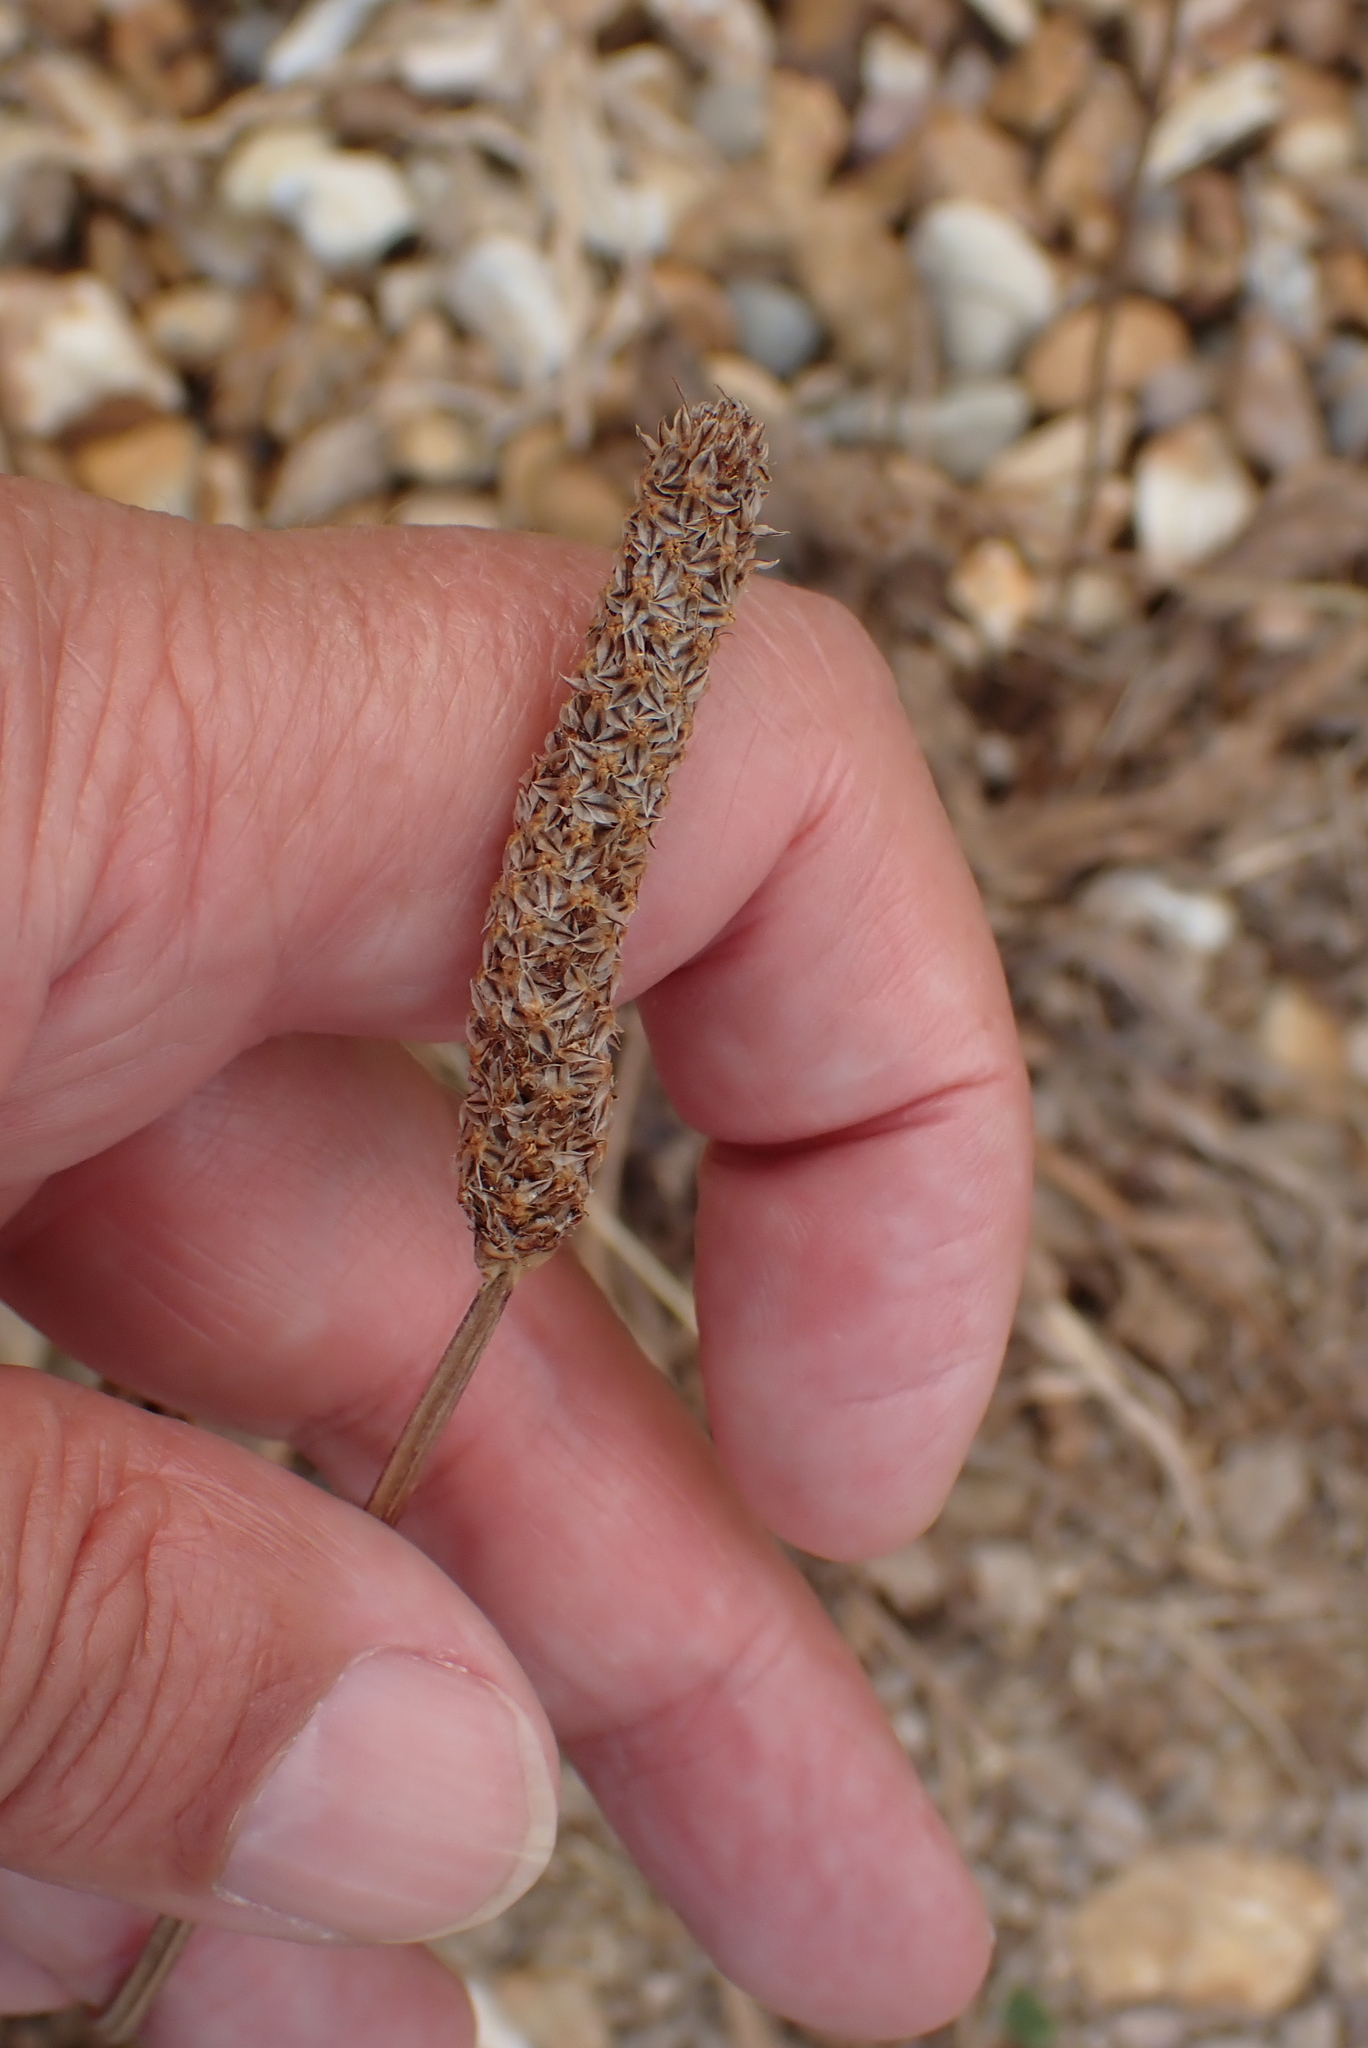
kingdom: Plantae
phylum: Tracheophyta
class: Magnoliopsida
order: Lamiales
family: Plantaginaceae
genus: Plantago
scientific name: Plantago lanceolata
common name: Ribwort plantain
